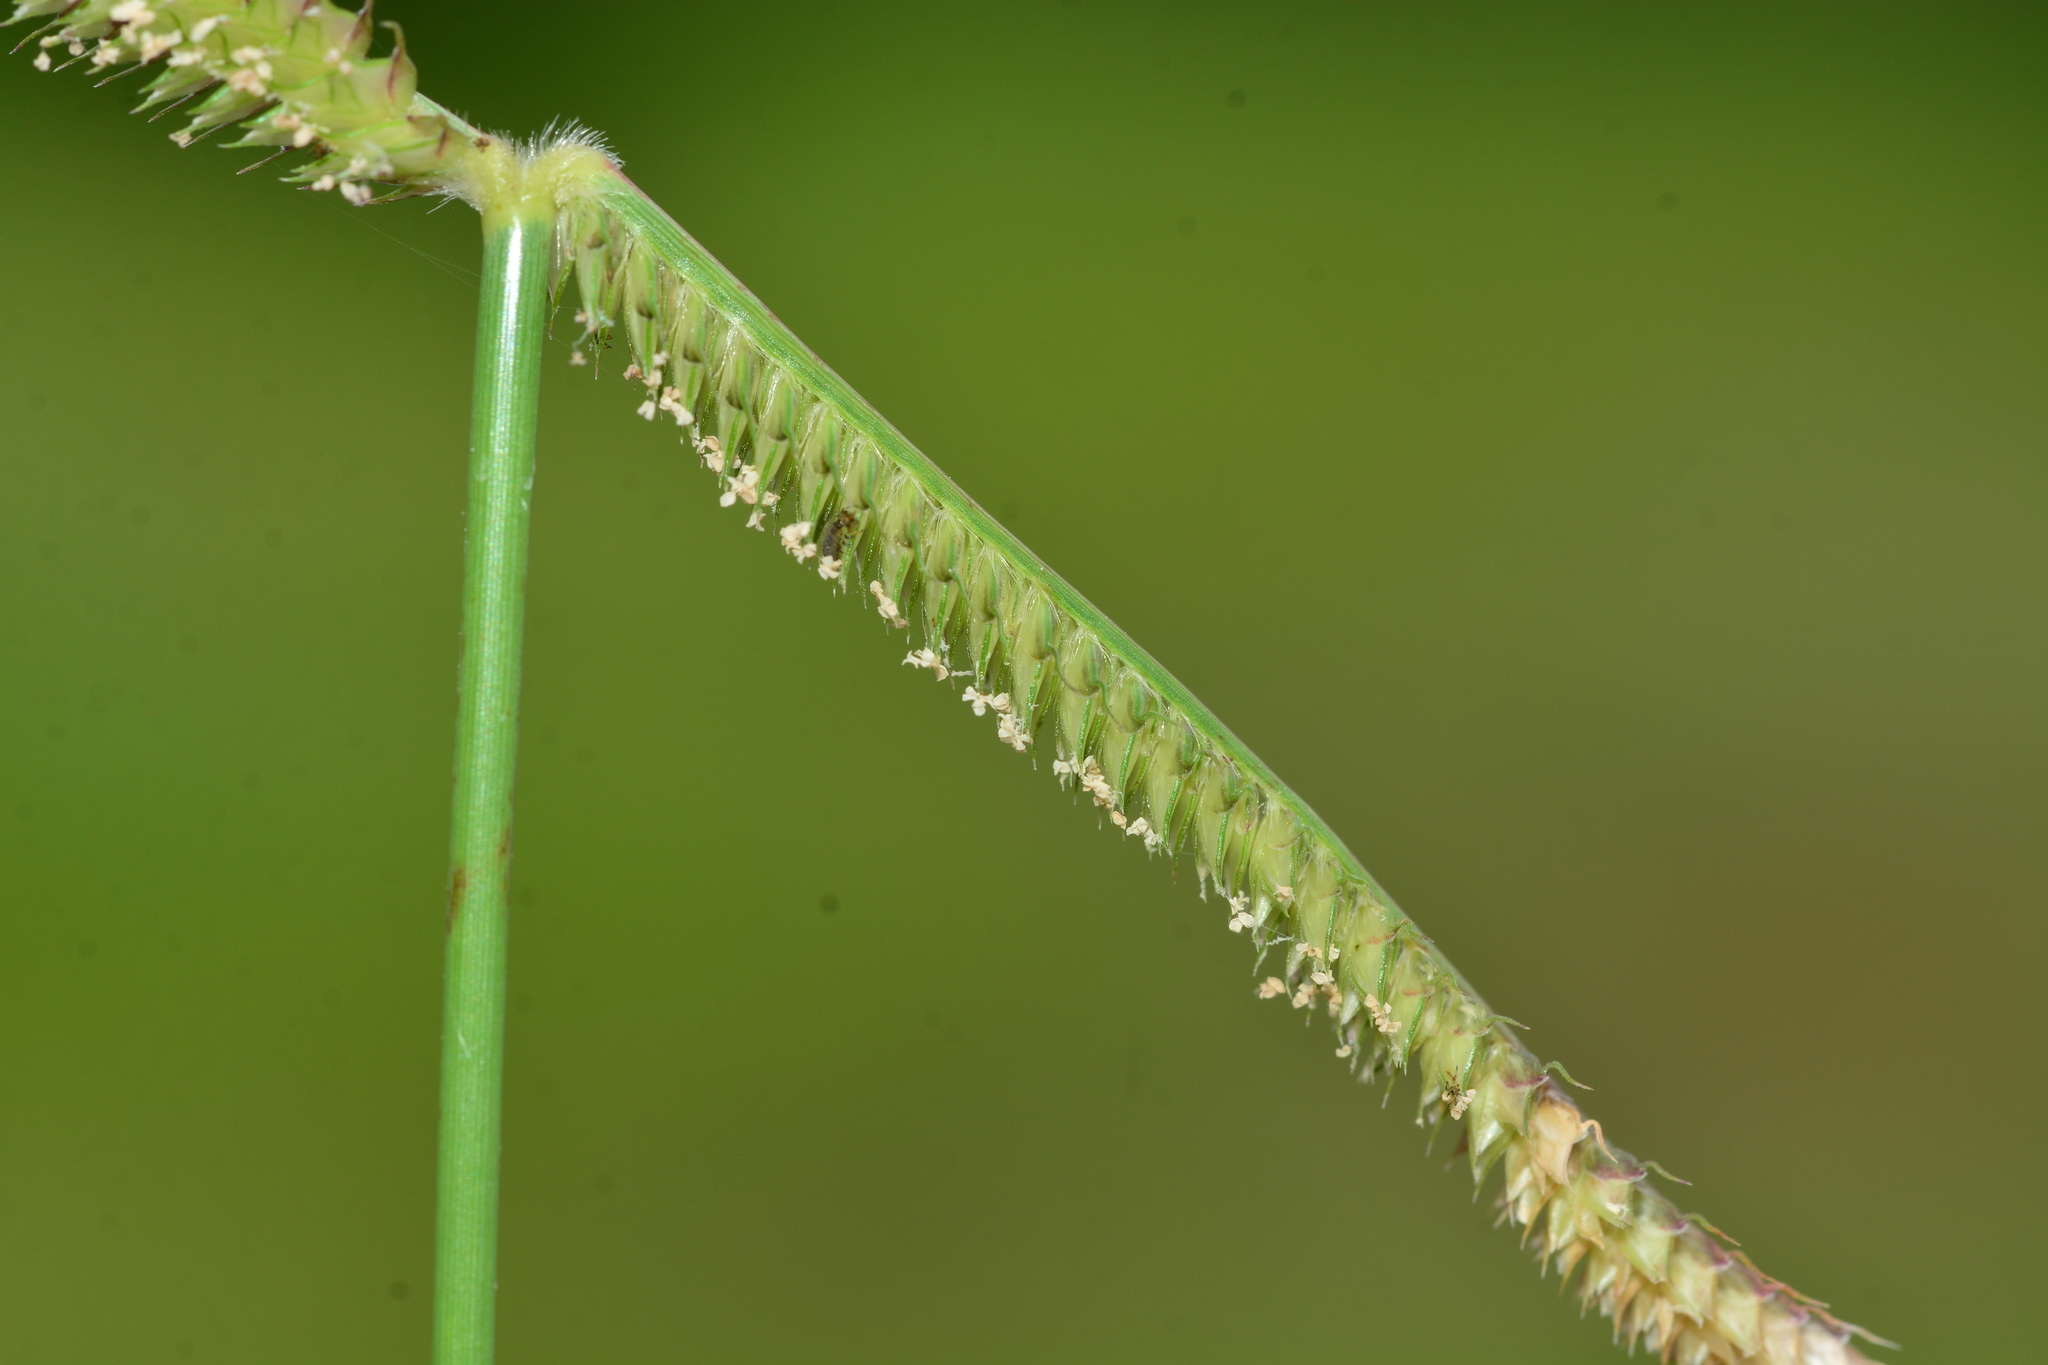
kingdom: Plantae
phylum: Tracheophyta
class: Liliopsida
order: Poales
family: Poaceae
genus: Dactyloctenium
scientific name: Dactyloctenium aegyptium
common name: Egyptian grass
